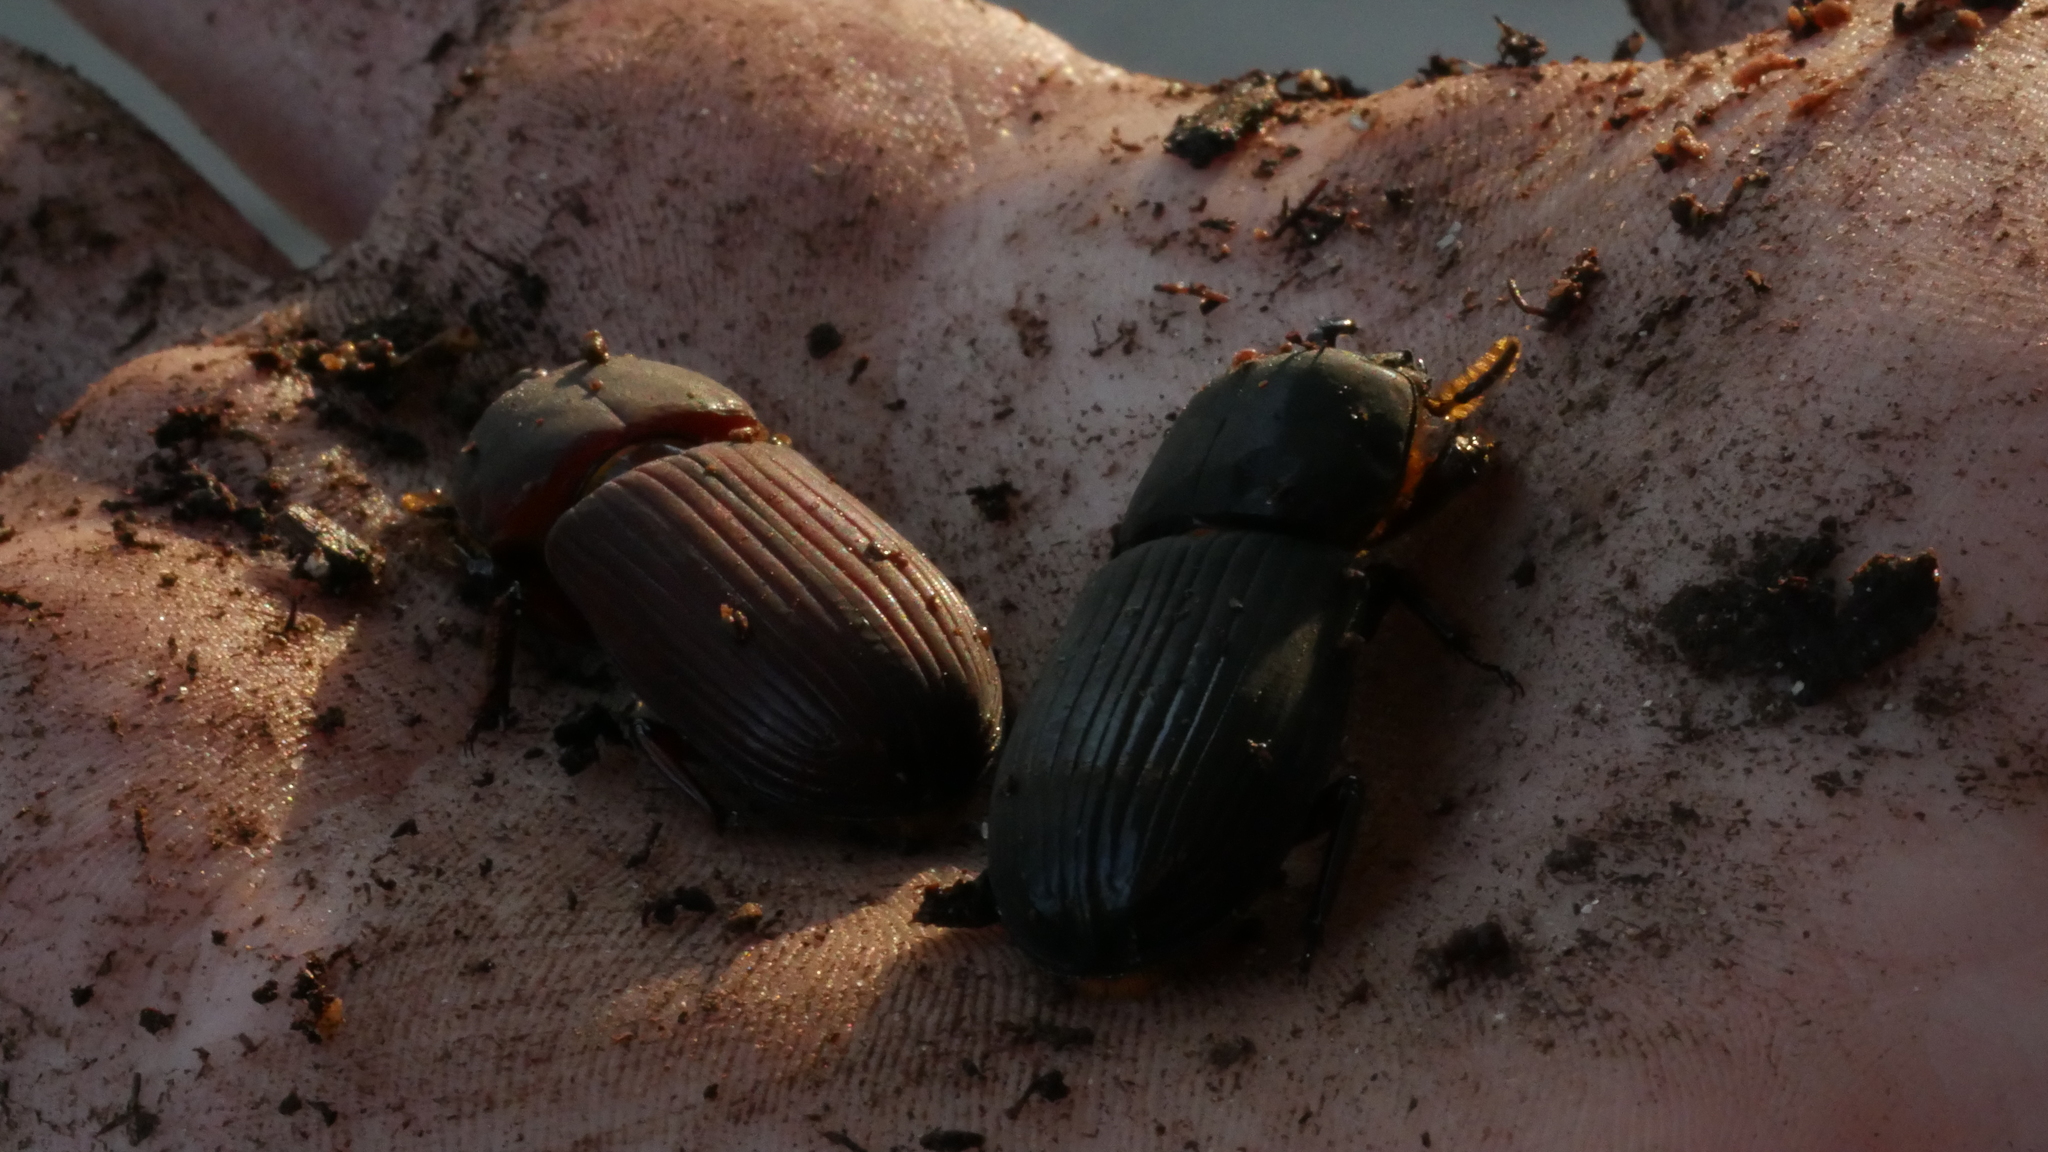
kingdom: Animalia
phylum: Arthropoda
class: Insecta
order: Coleoptera
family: Passalidae
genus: Odontotaenius
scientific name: Odontotaenius disjunctus
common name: Patent leather beetle
